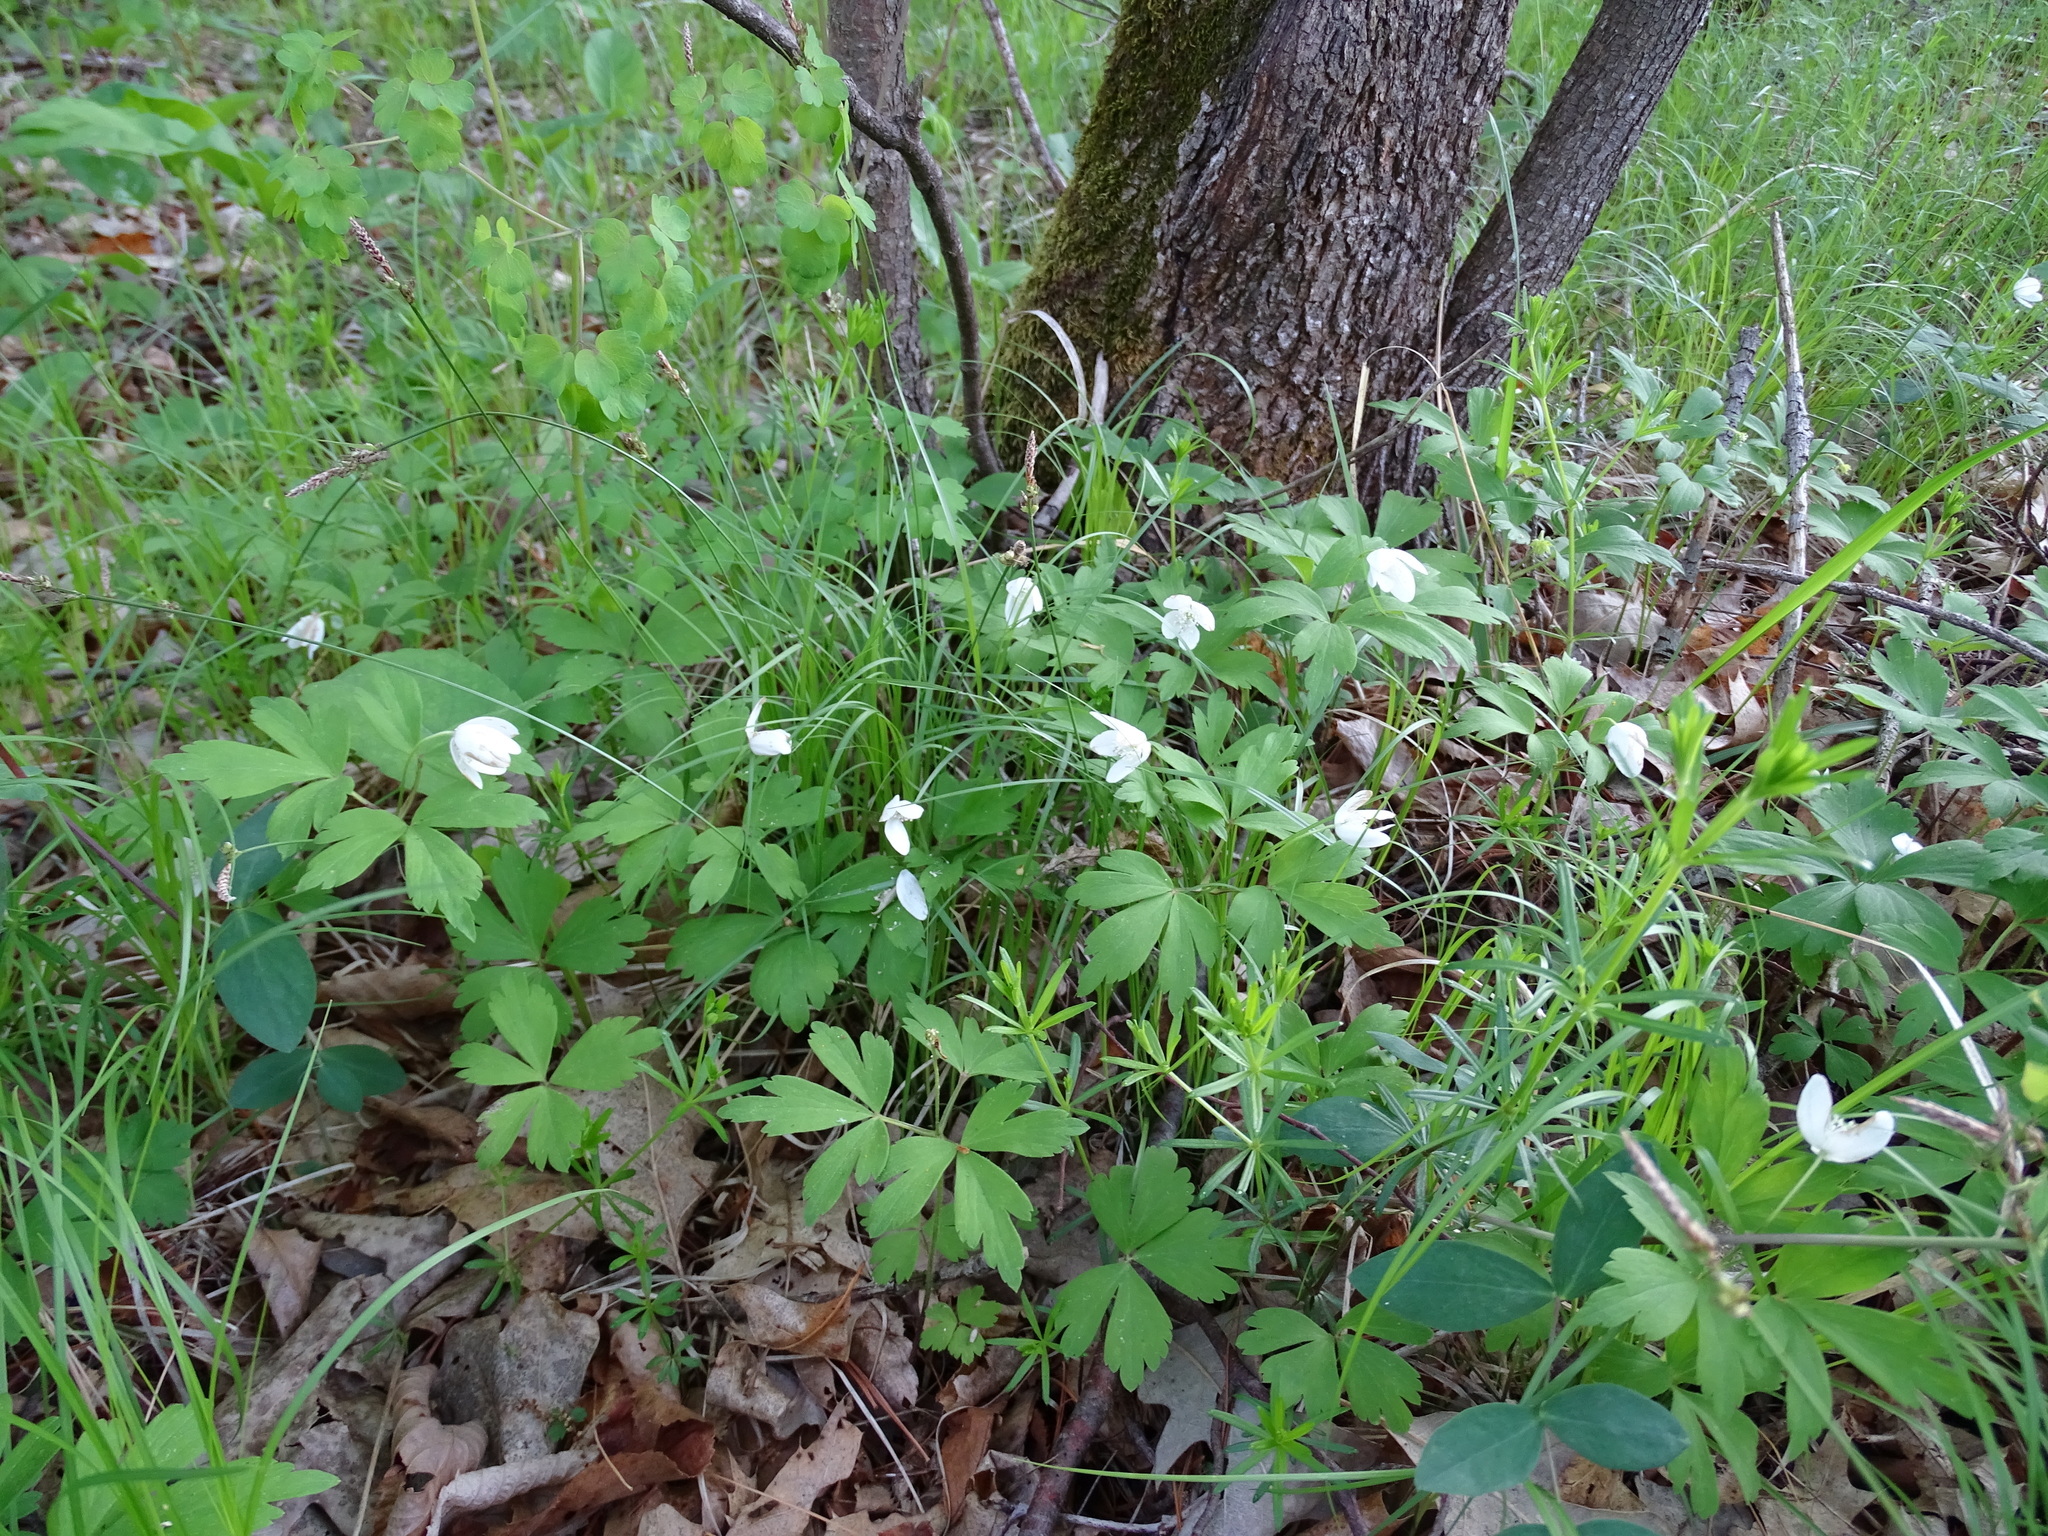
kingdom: Plantae
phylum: Tracheophyta
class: Magnoliopsida
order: Ranunculales
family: Ranunculaceae
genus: Anemone
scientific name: Anemone quinquefolia
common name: Wood anemone
